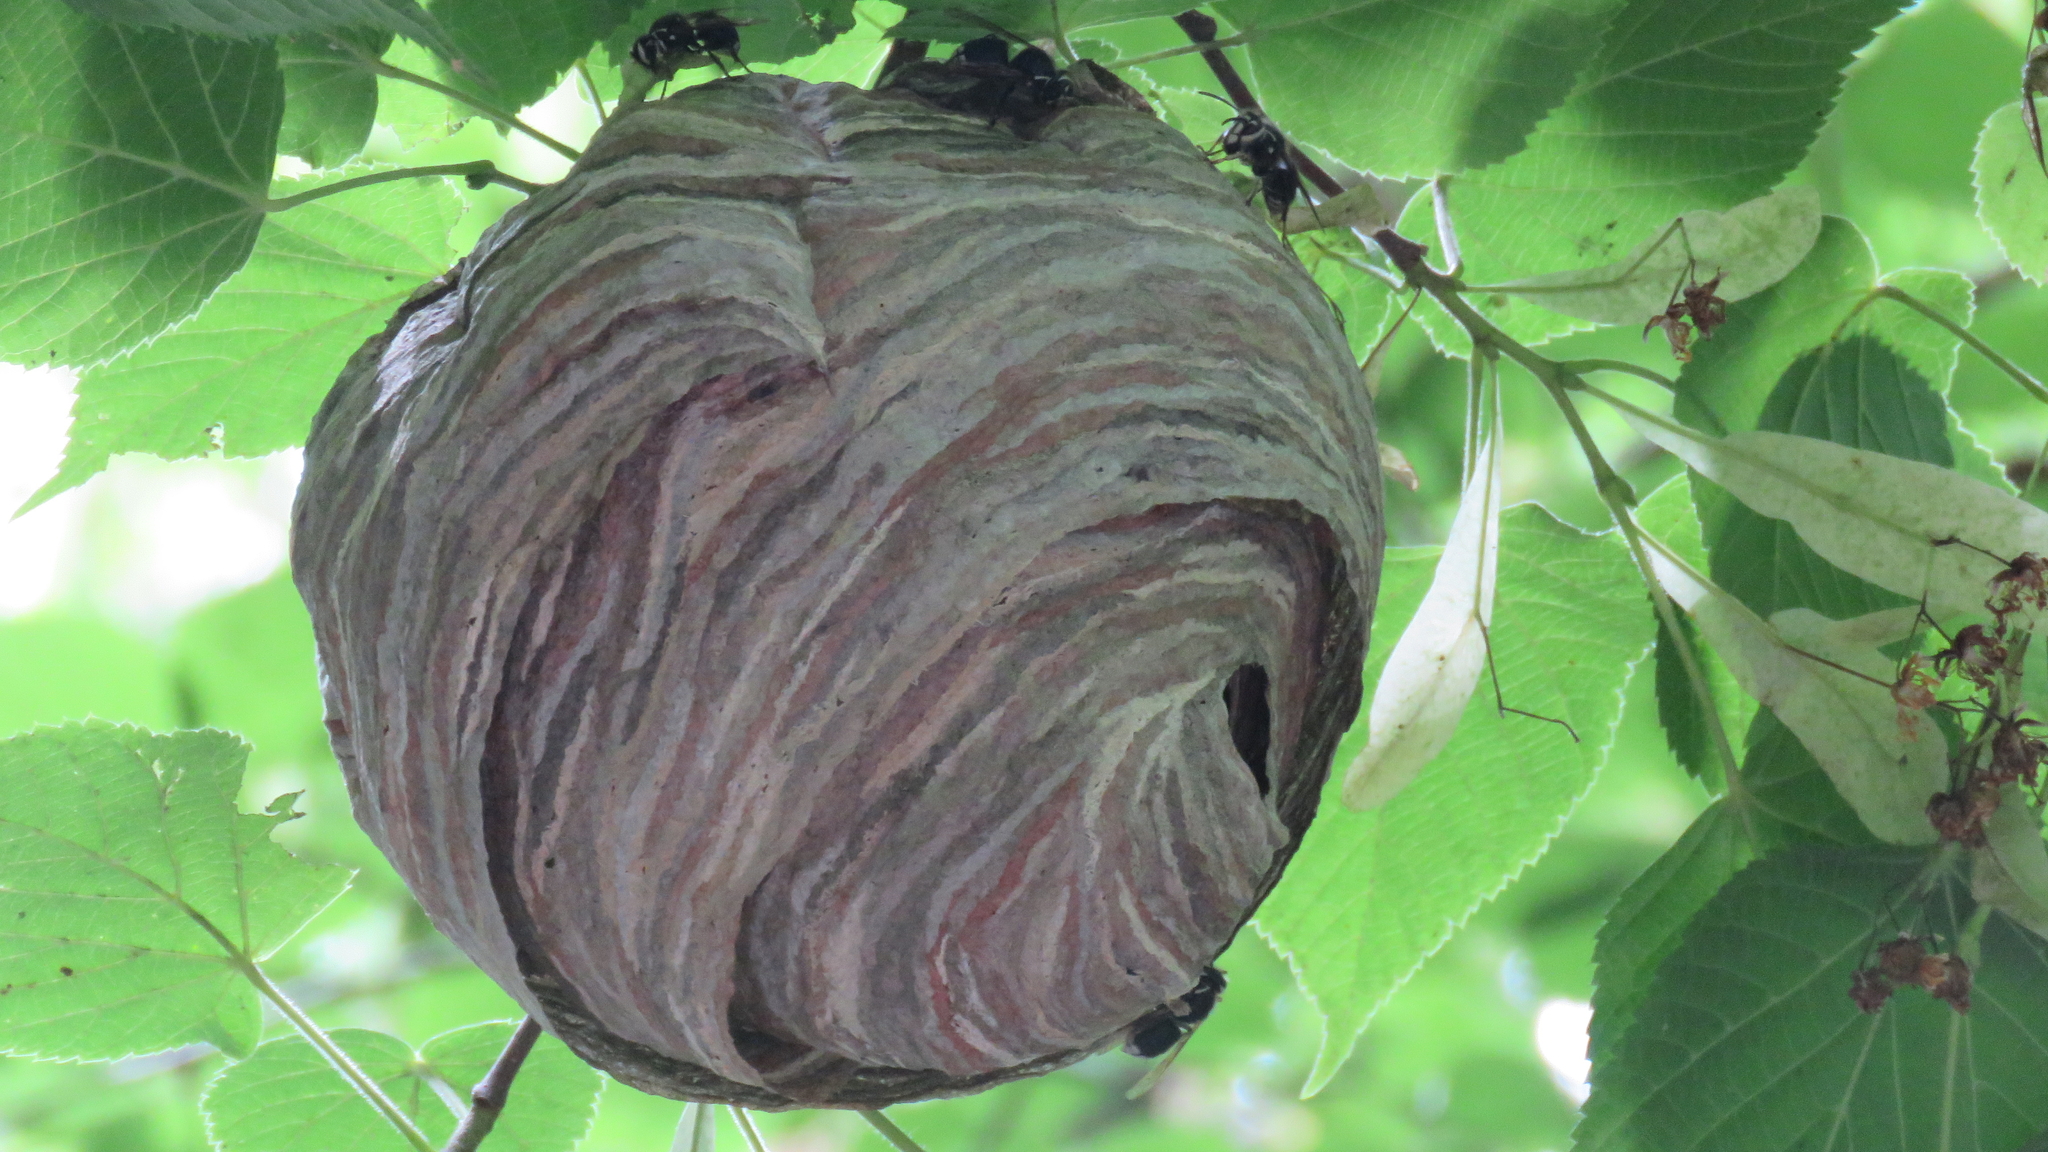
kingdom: Animalia
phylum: Arthropoda
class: Insecta
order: Hymenoptera
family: Vespidae
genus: Dolichovespula
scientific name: Dolichovespula maculata
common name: Bald-faced hornet
